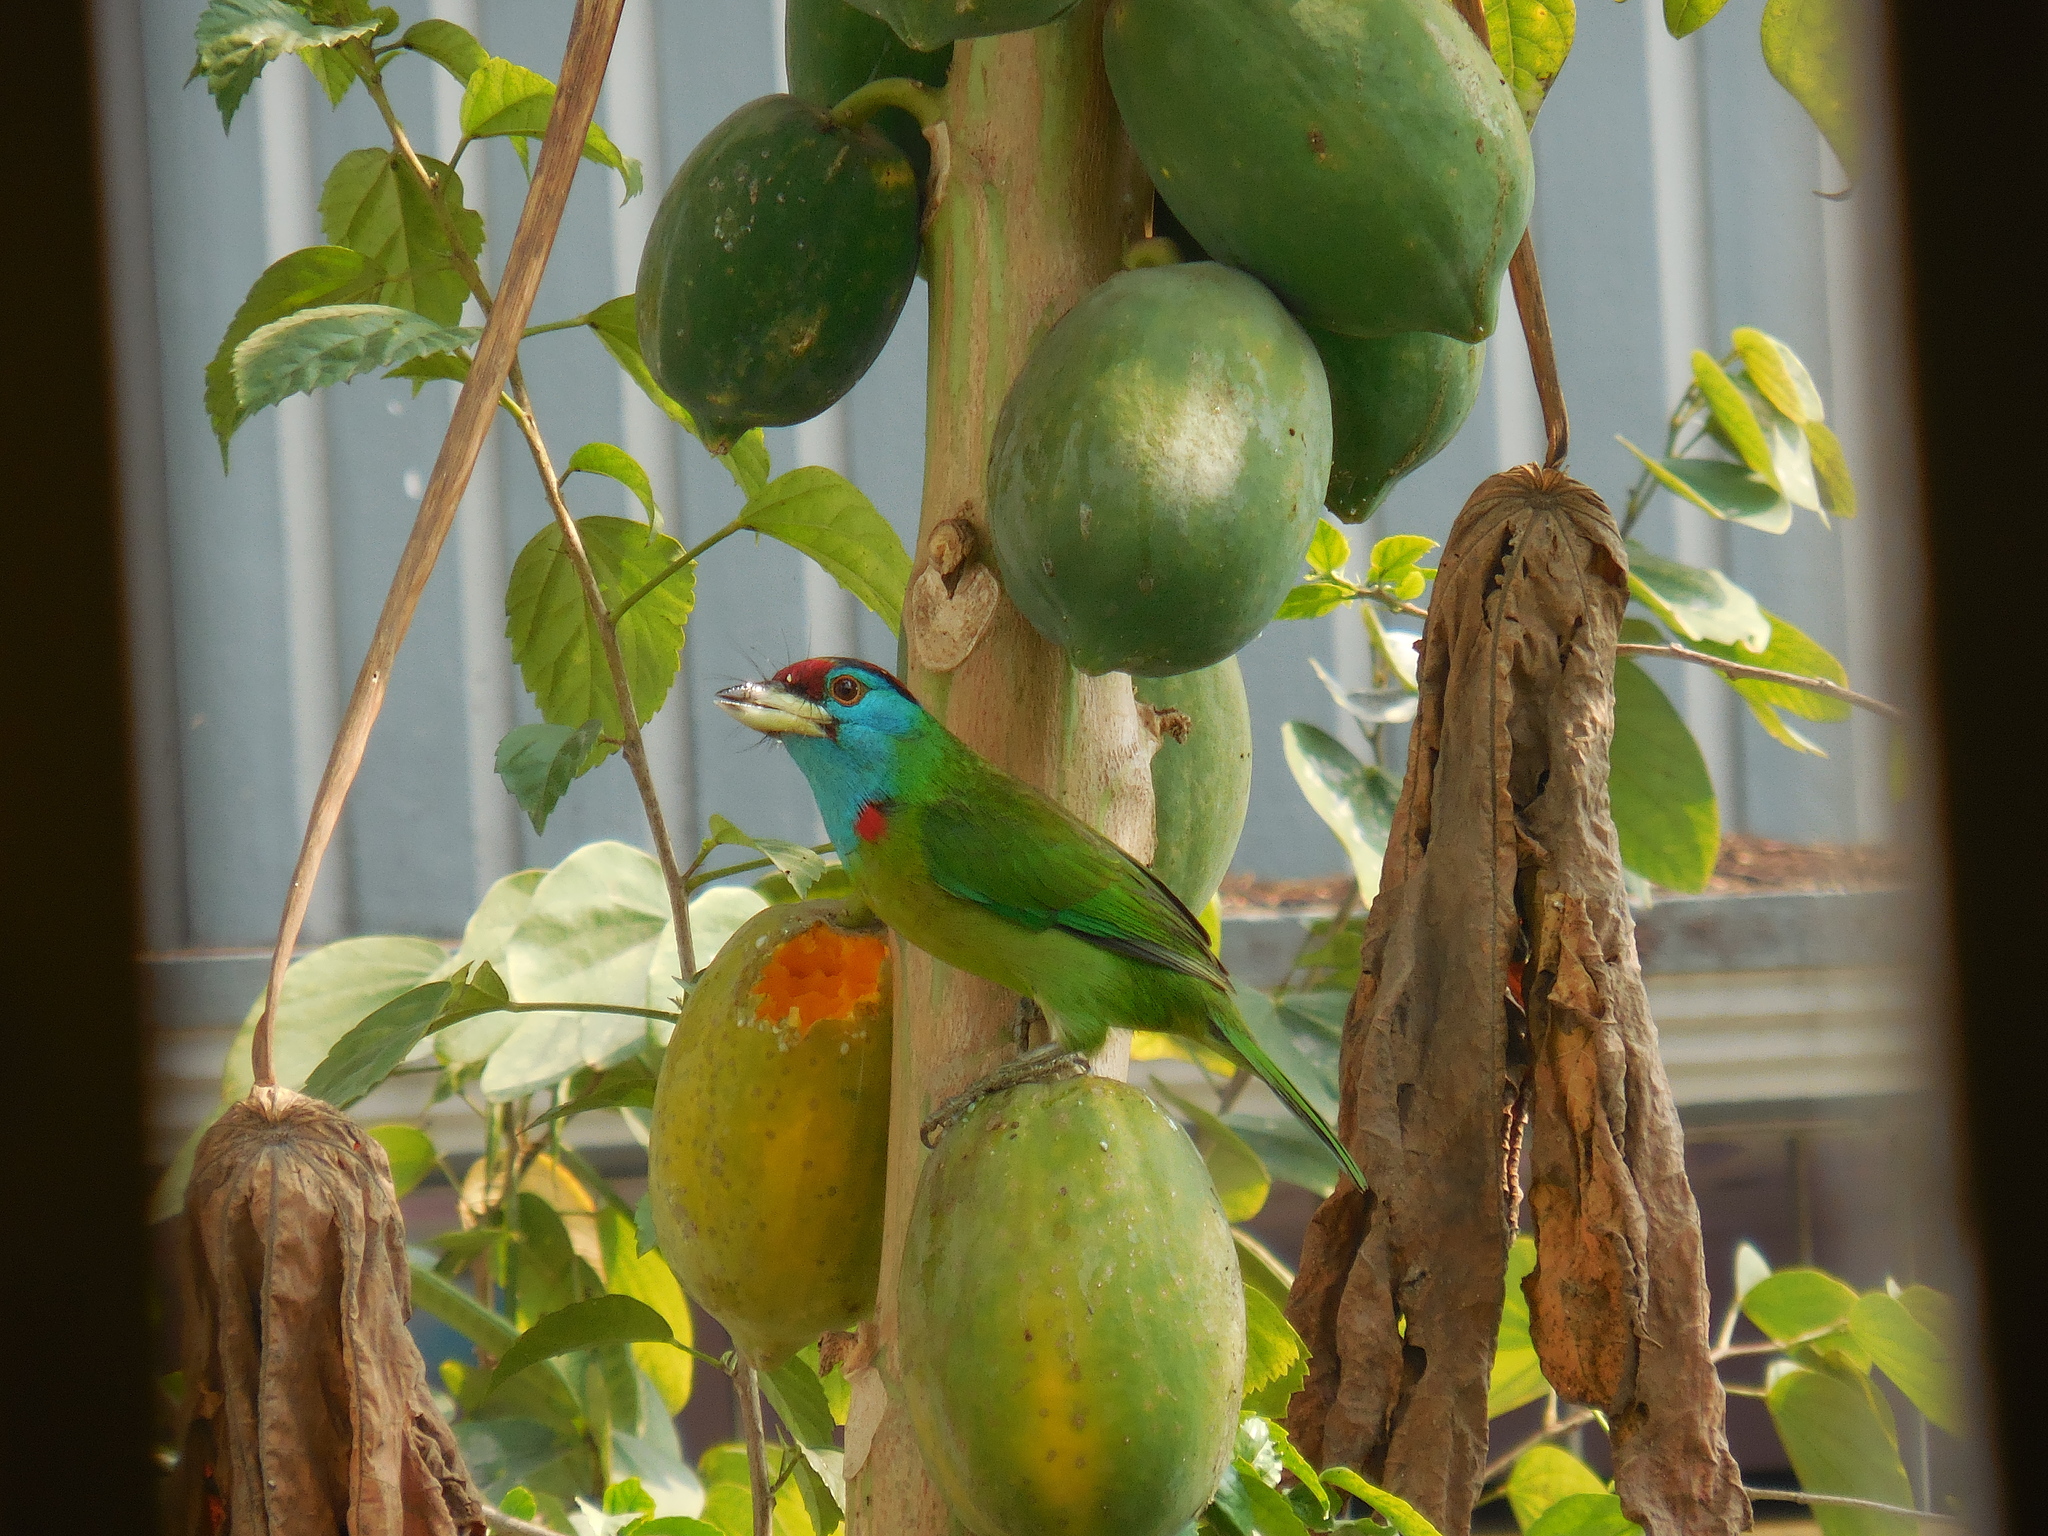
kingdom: Animalia
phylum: Chordata
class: Aves
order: Piciformes
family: Megalaimidae
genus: Psilopogon
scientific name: Psilopogon asiaticus
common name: Blue-throated barbet
